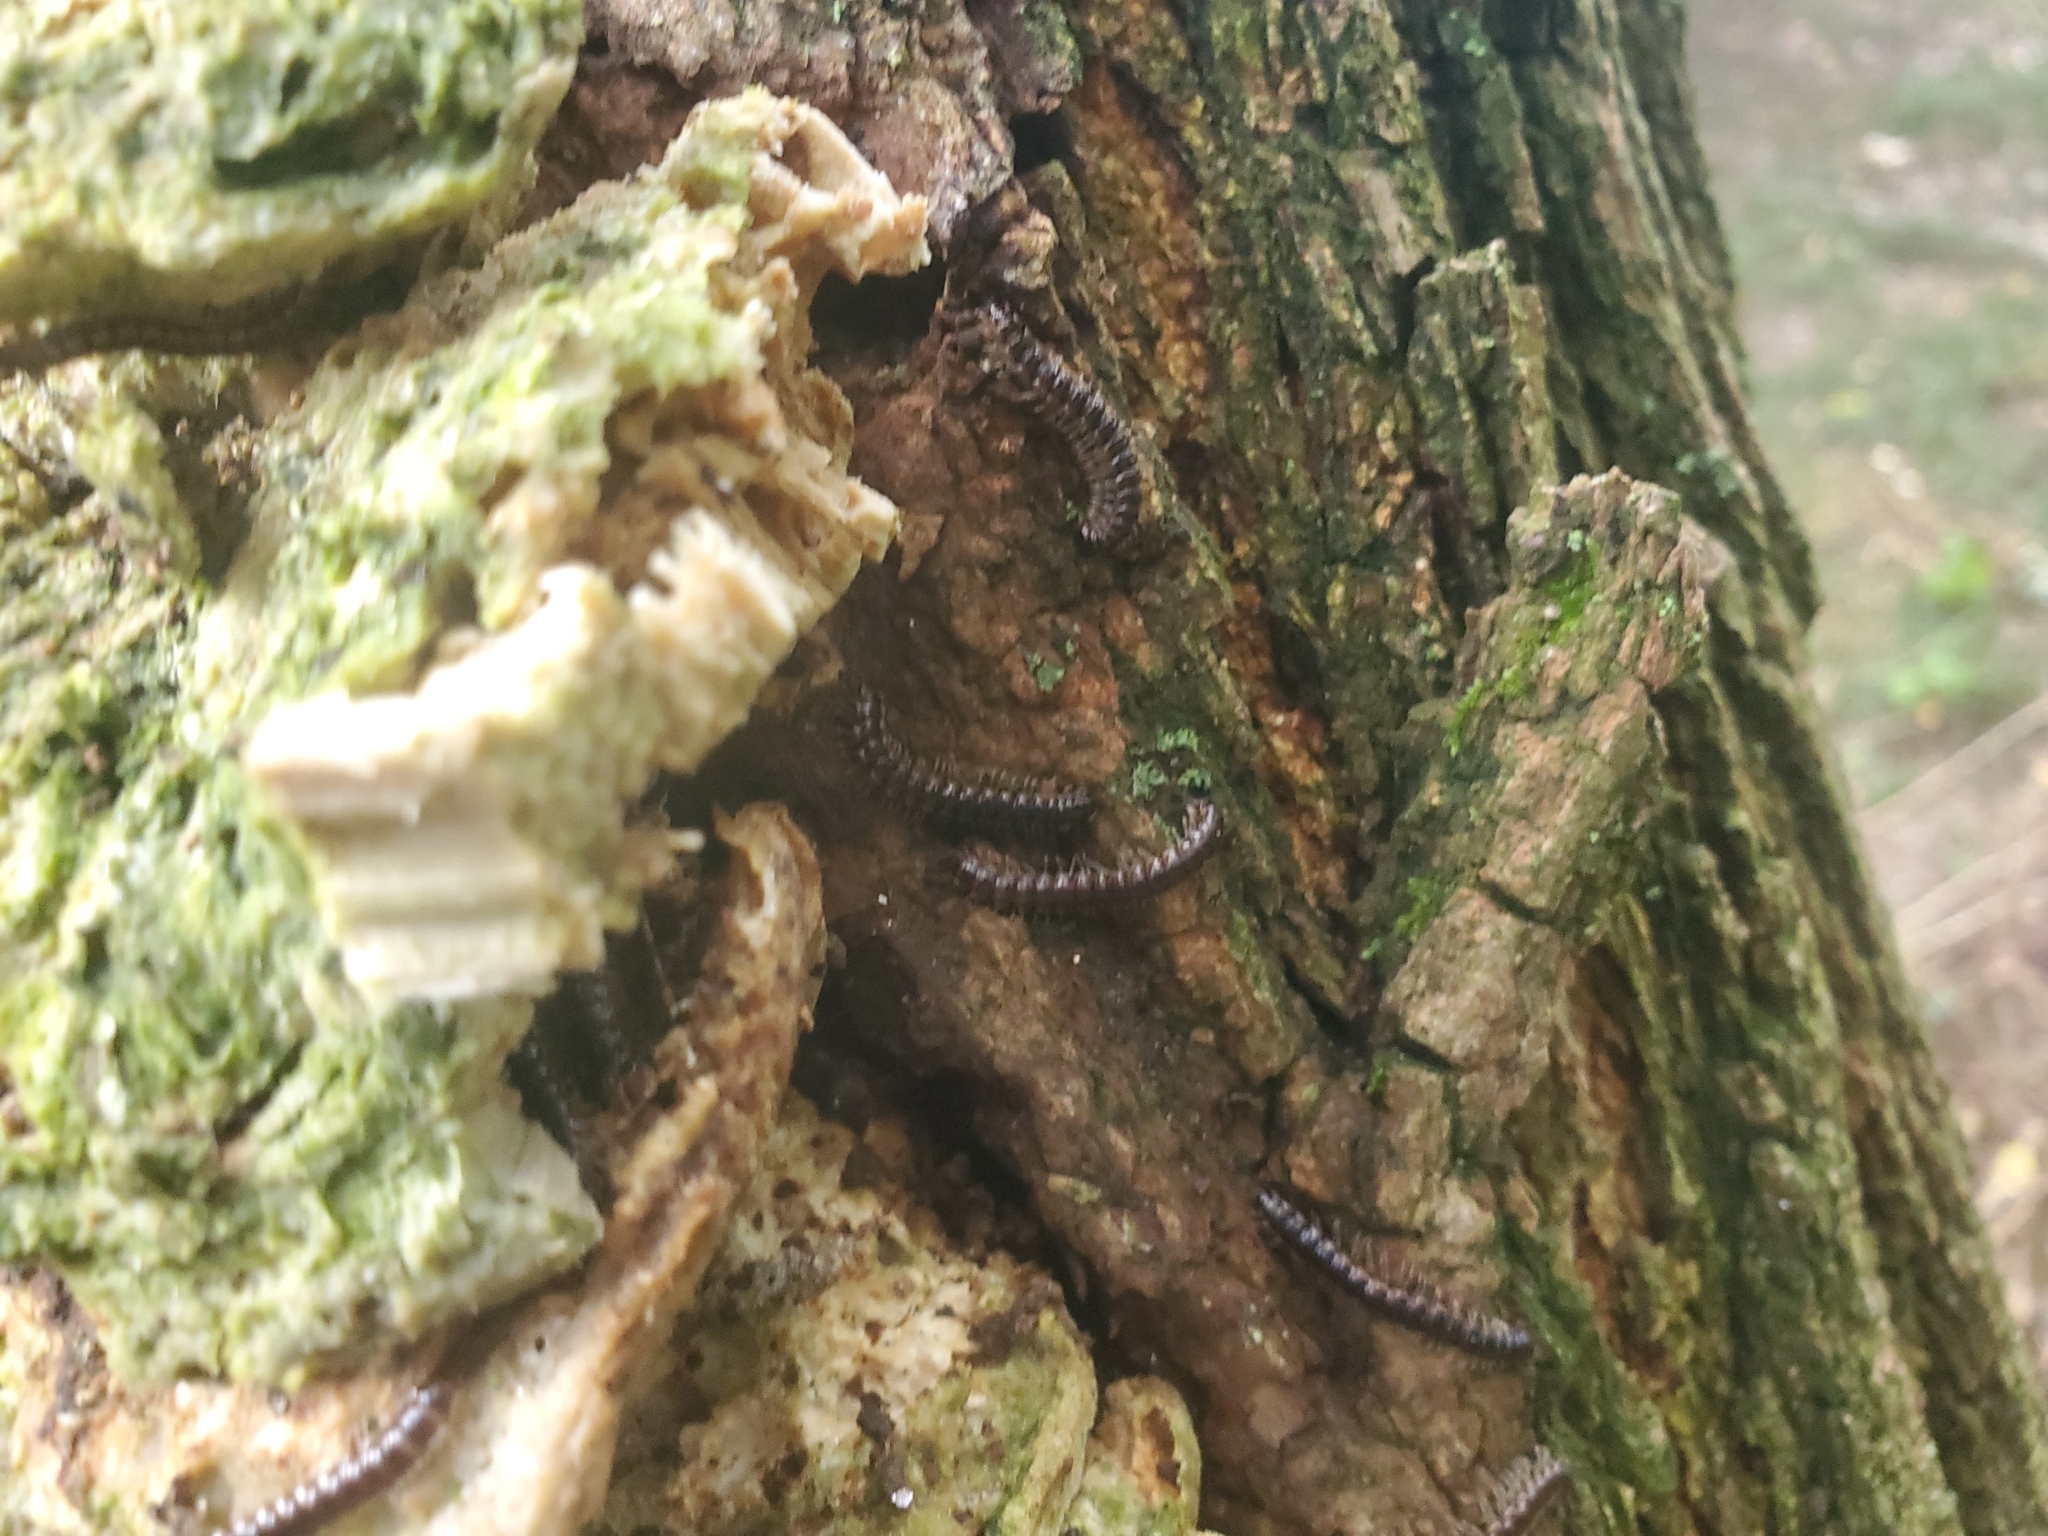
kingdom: Animalia
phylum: Arthropoda
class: Diplopoda
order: Polydesmida
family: Paradoxosomatidae
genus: Oxidus
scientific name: Oxidus gracilis
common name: Greenhouse millipede
